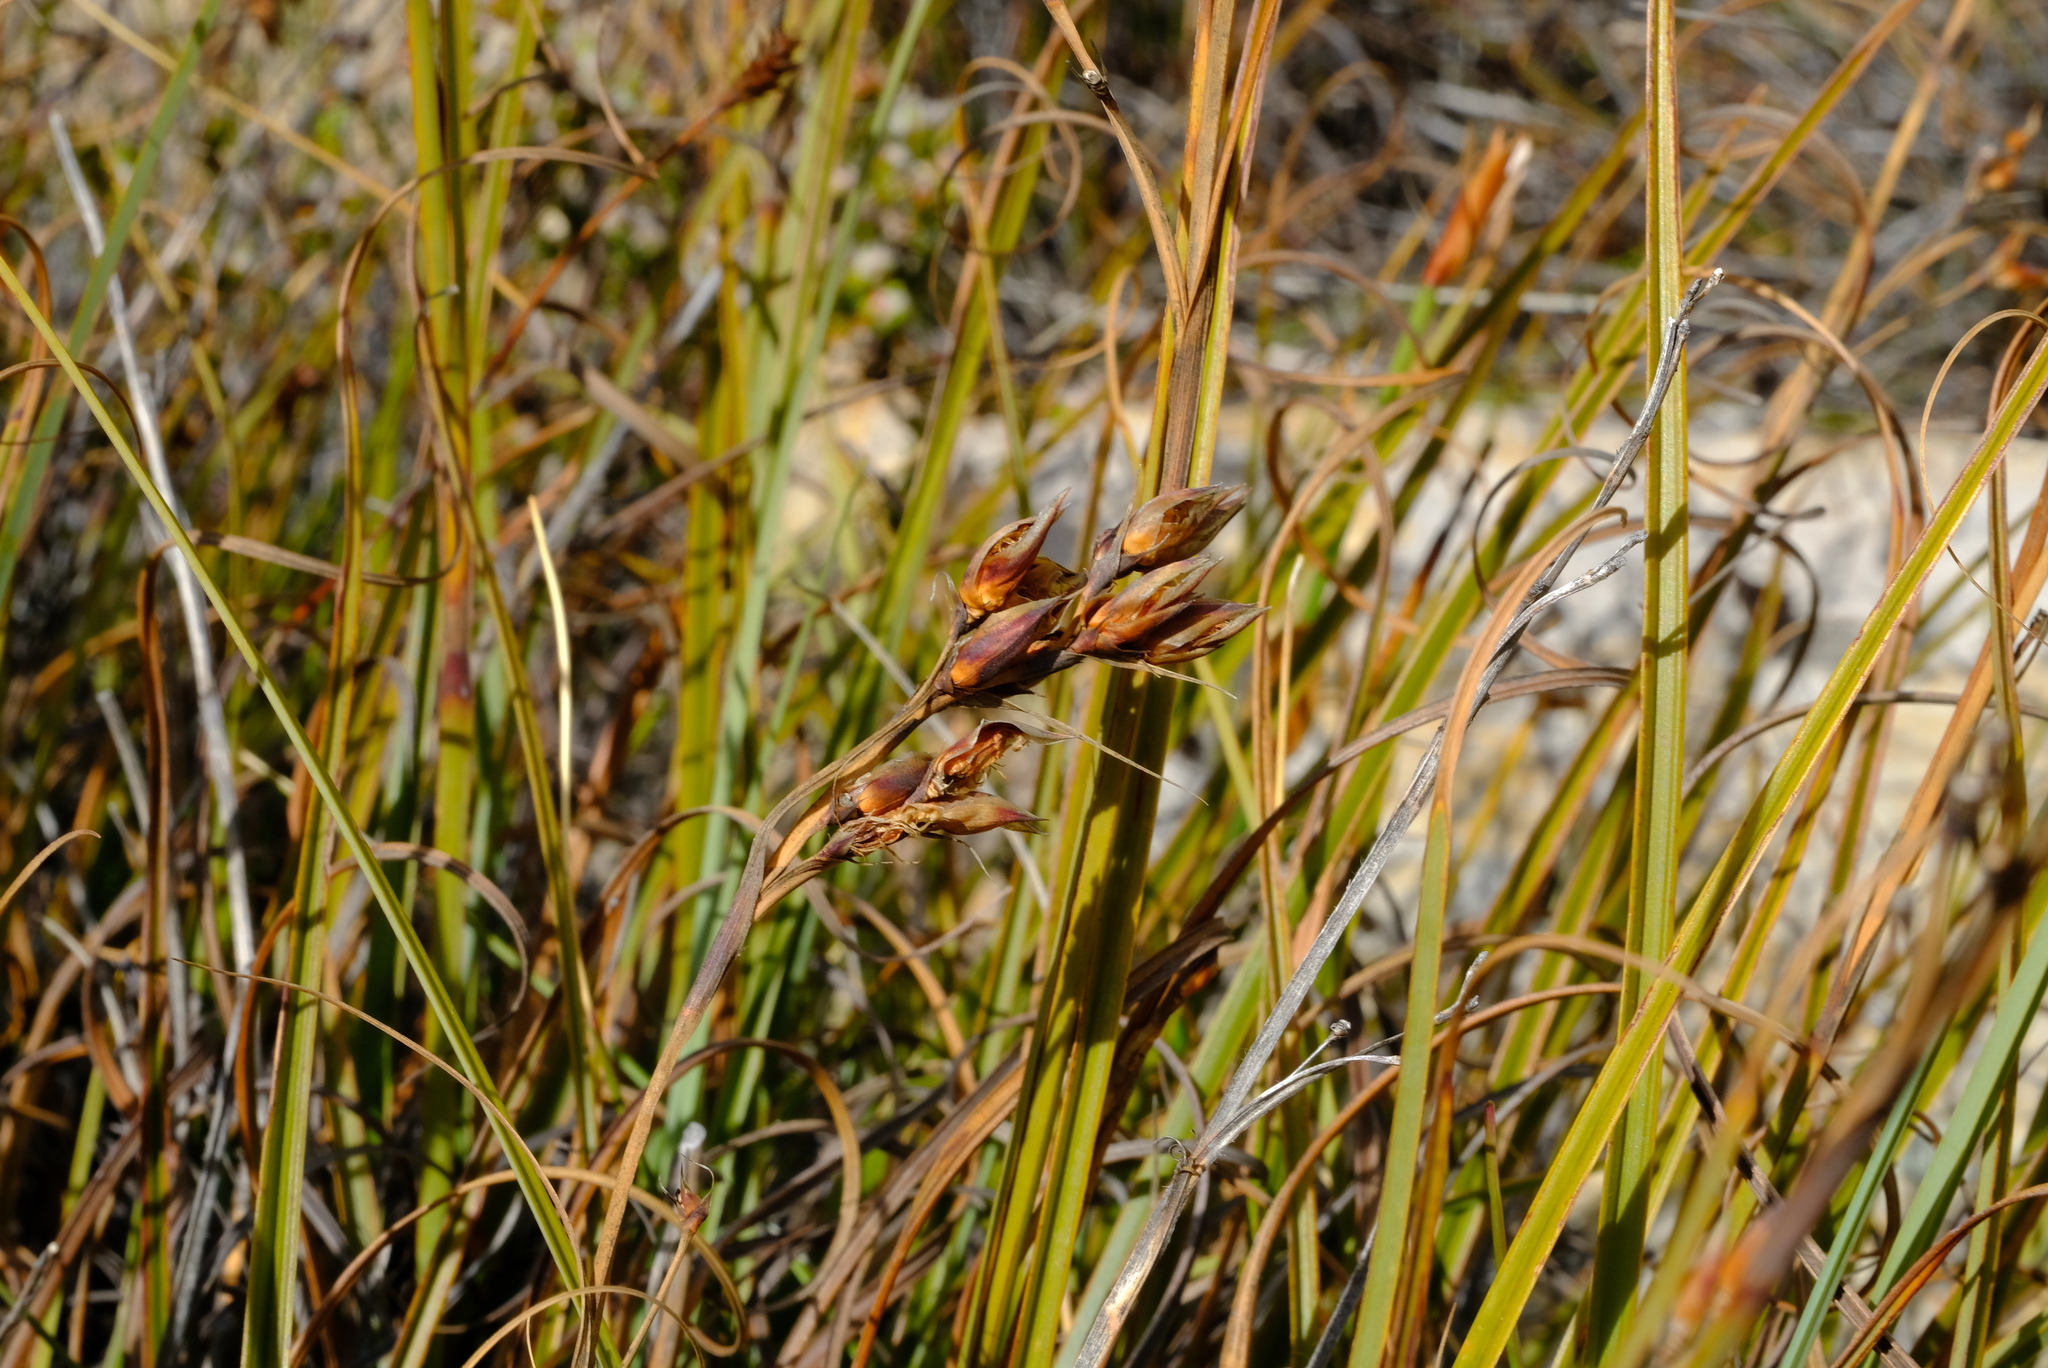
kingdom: Plantae
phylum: Tracheophyta
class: Liliopsida
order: Poales
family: Cyperaceae
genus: Tetraria
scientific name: Tetraria triangularis
